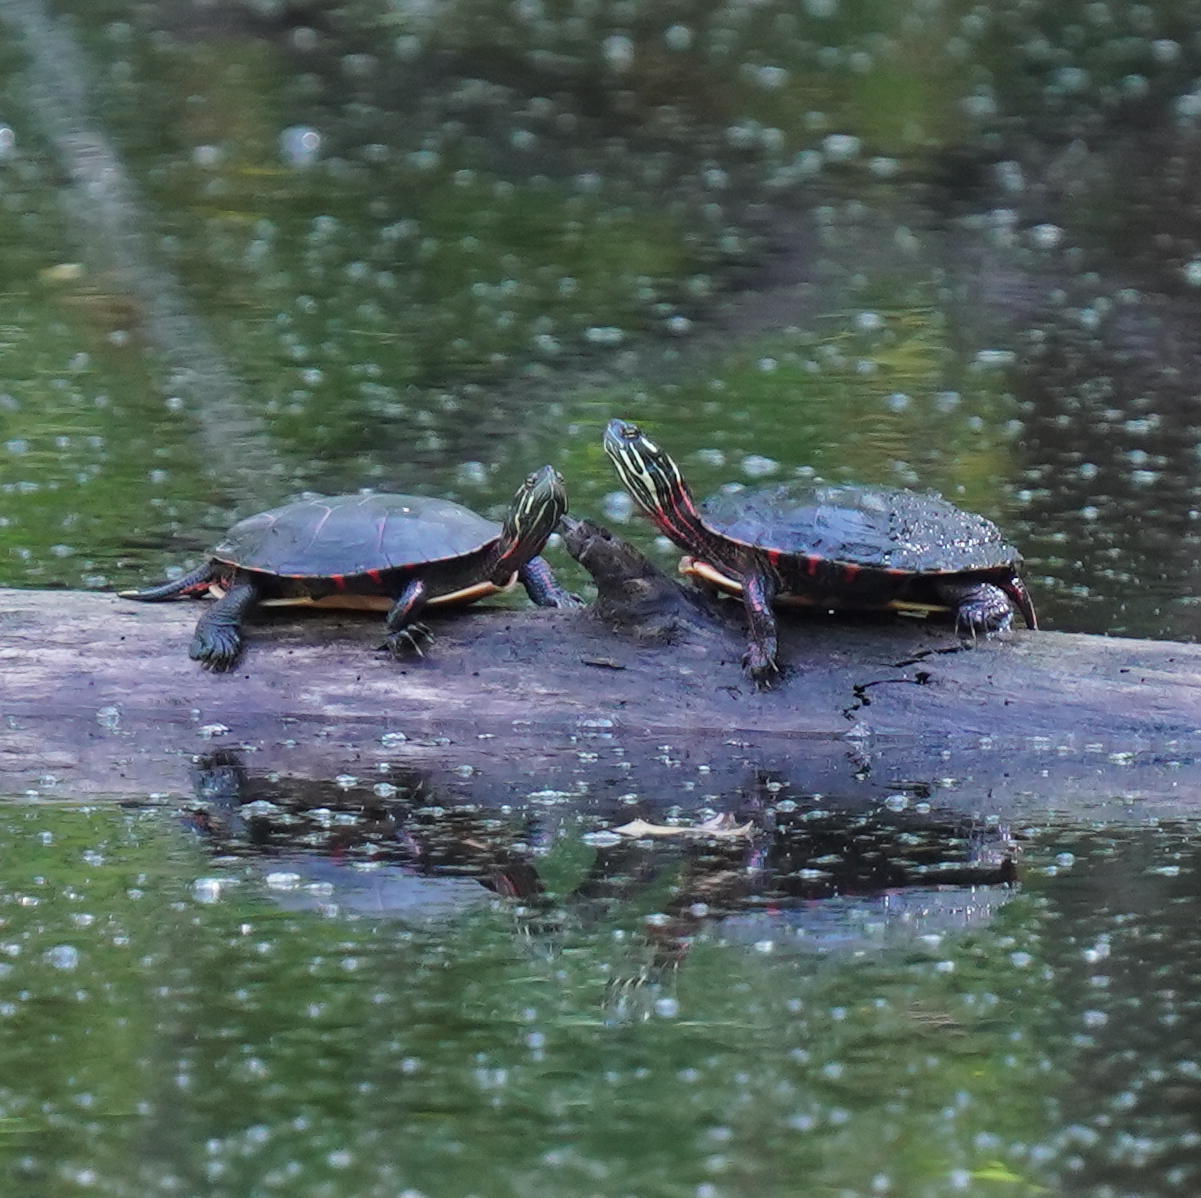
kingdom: Animalia
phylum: Chordata
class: Testudines
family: Emydidae
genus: Chrysemys
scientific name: Chrysemys picta
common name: Painted turtle
